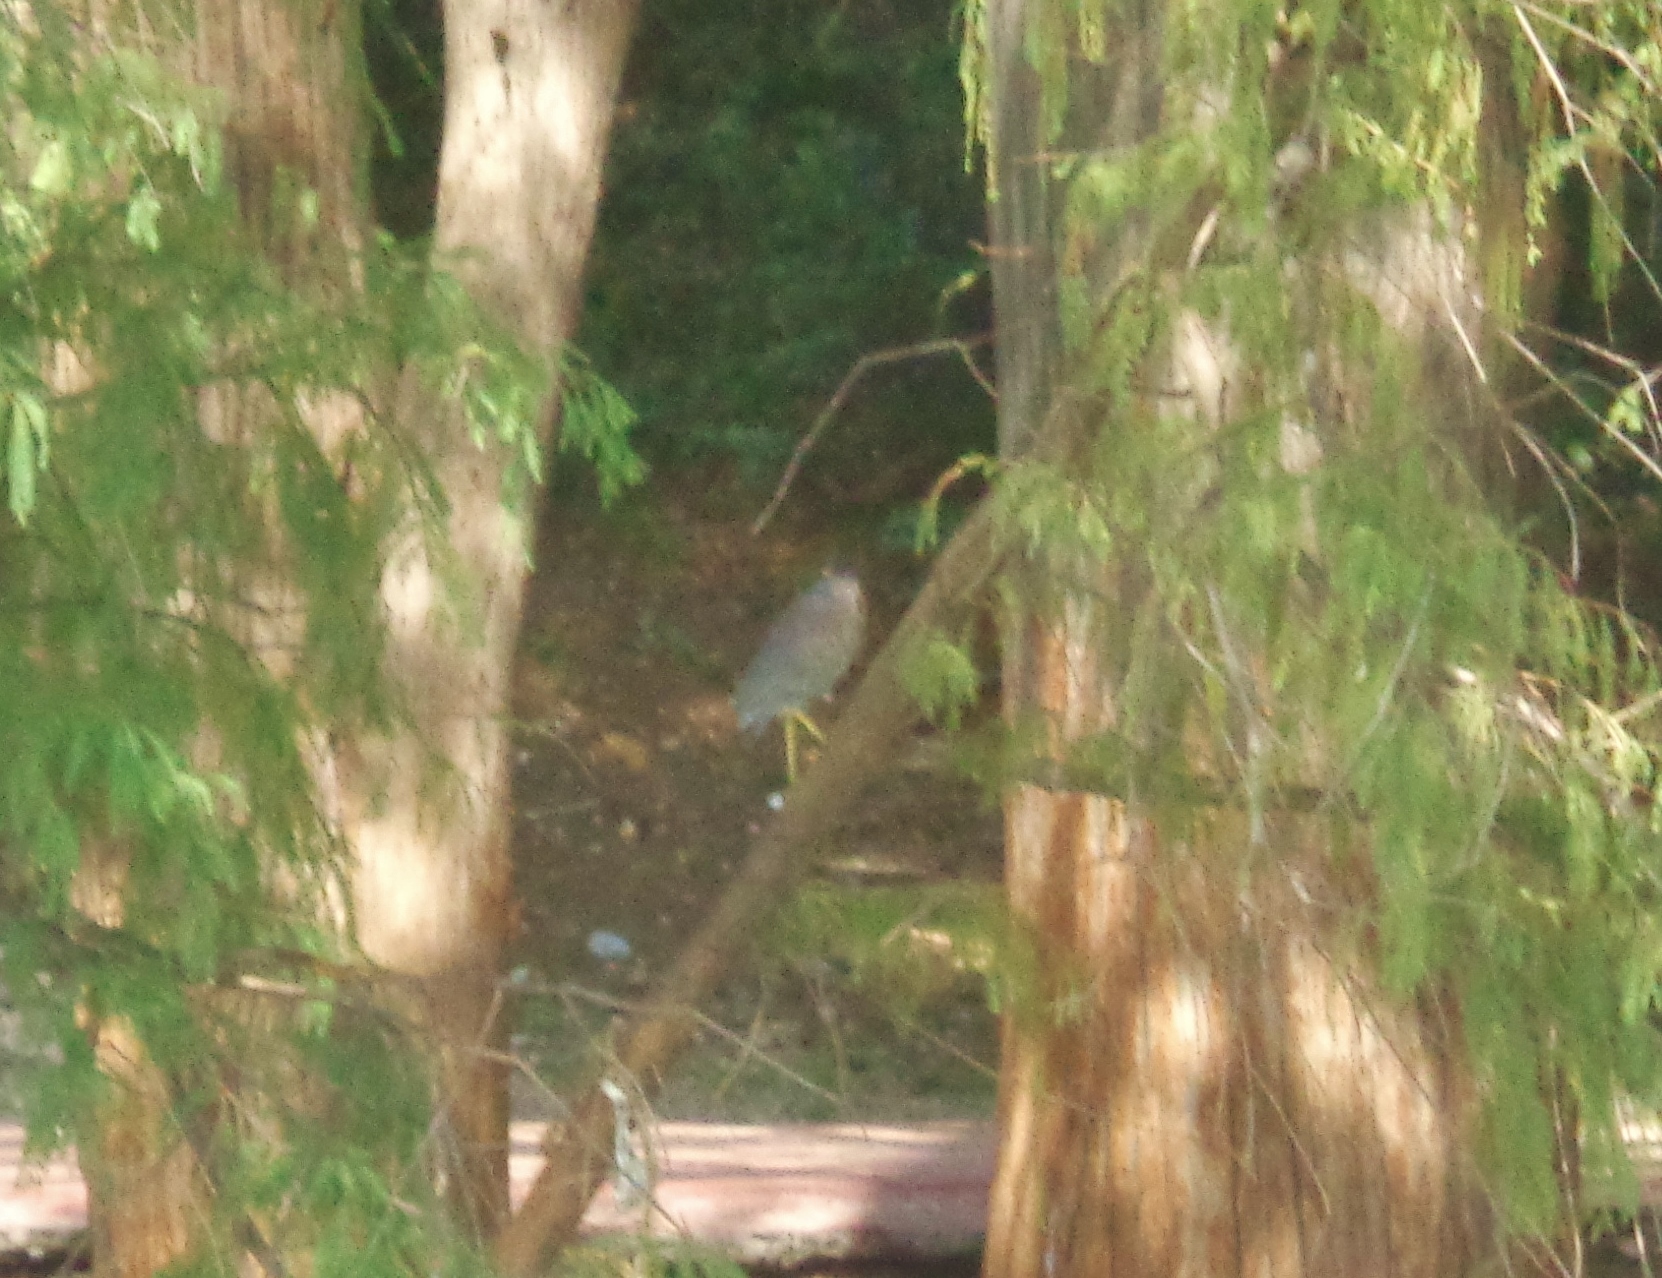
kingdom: Animalia
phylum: Chordata
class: Aves
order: Pelecaniformes
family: Ardeidae
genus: Butorides
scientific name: Butorides virescens
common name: Green heron
